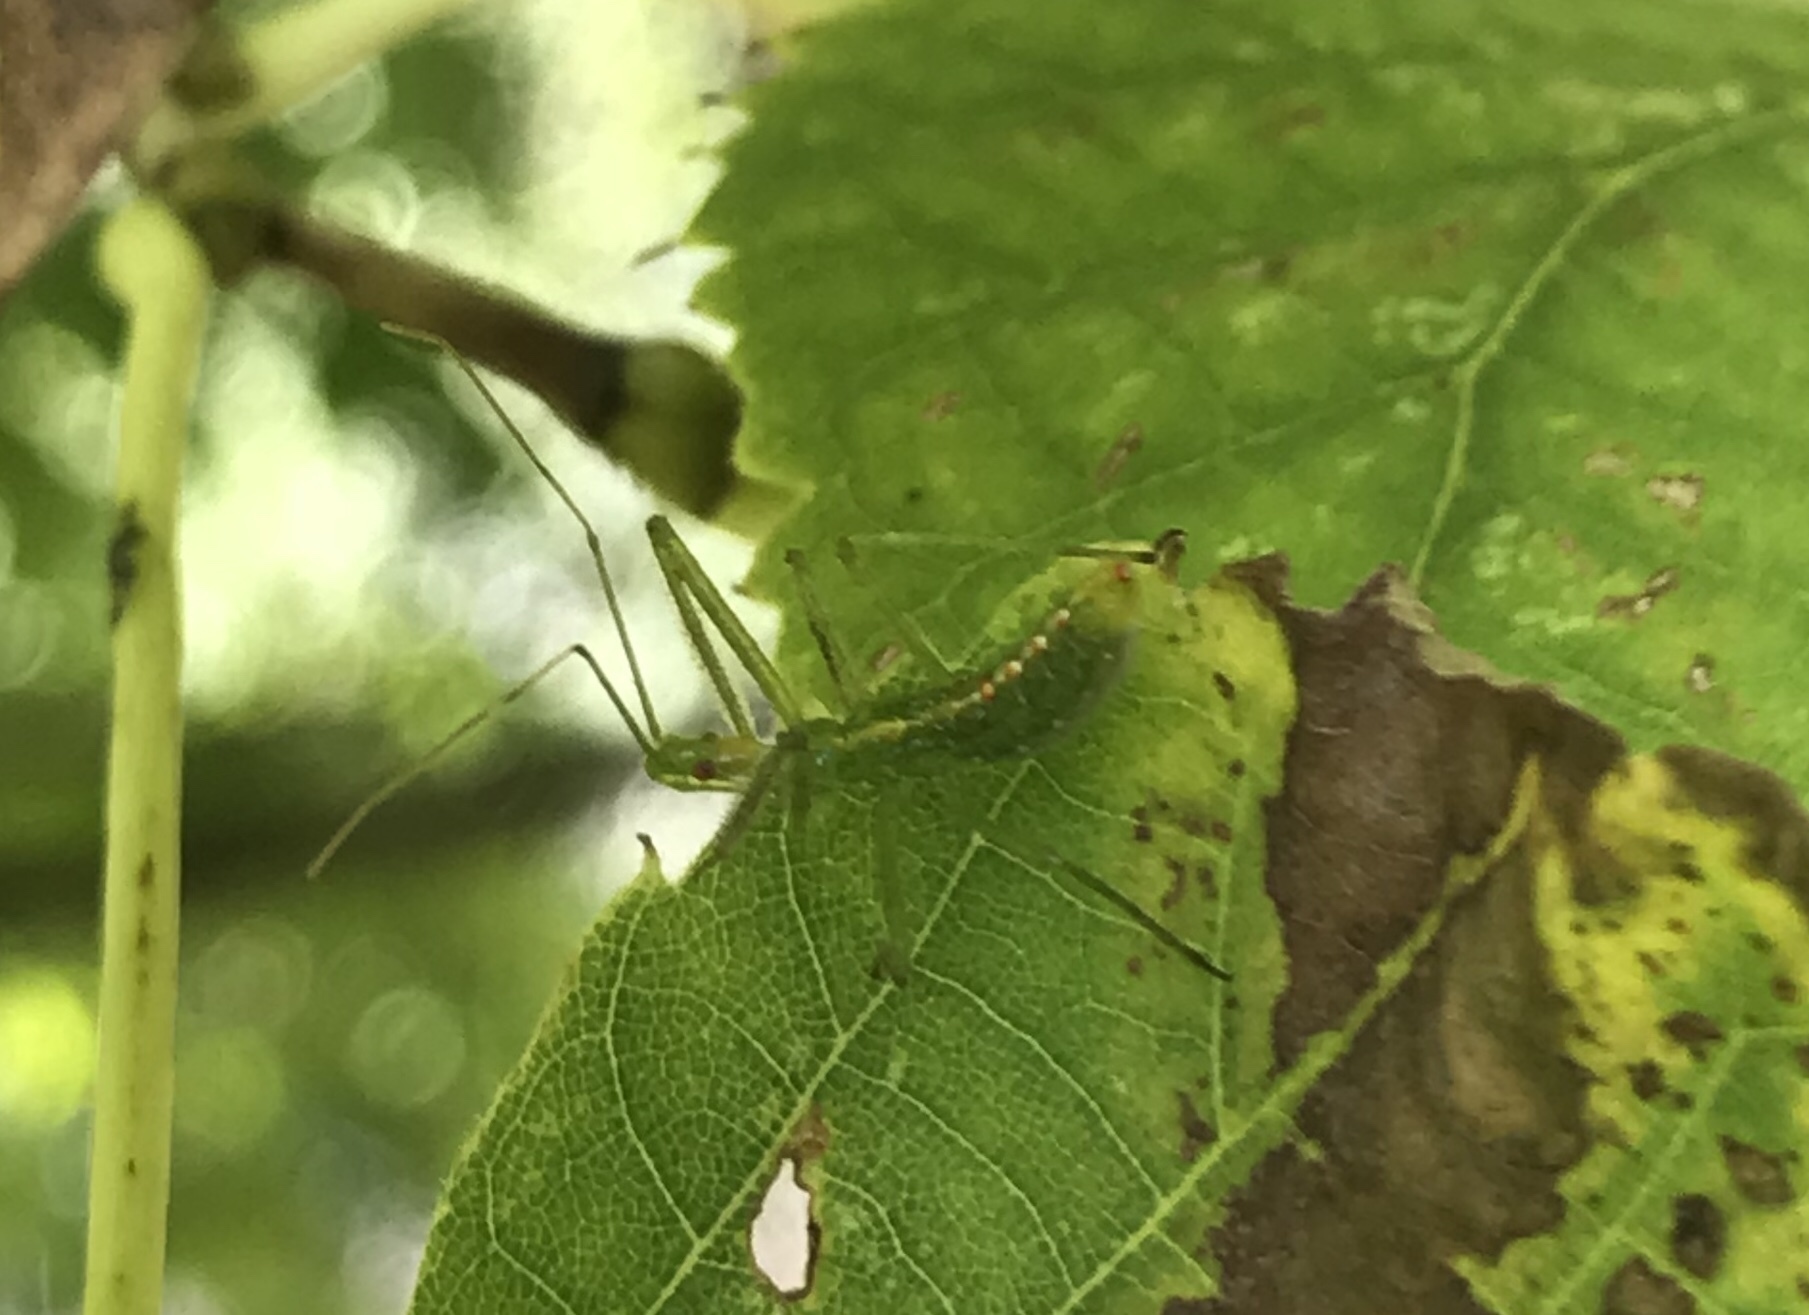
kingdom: Animalia
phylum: Arthropoda
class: Insecta
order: Hemiptera
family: Reduviidae
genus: Zelus
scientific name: Zelus luridus
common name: Pale green assassin bug
